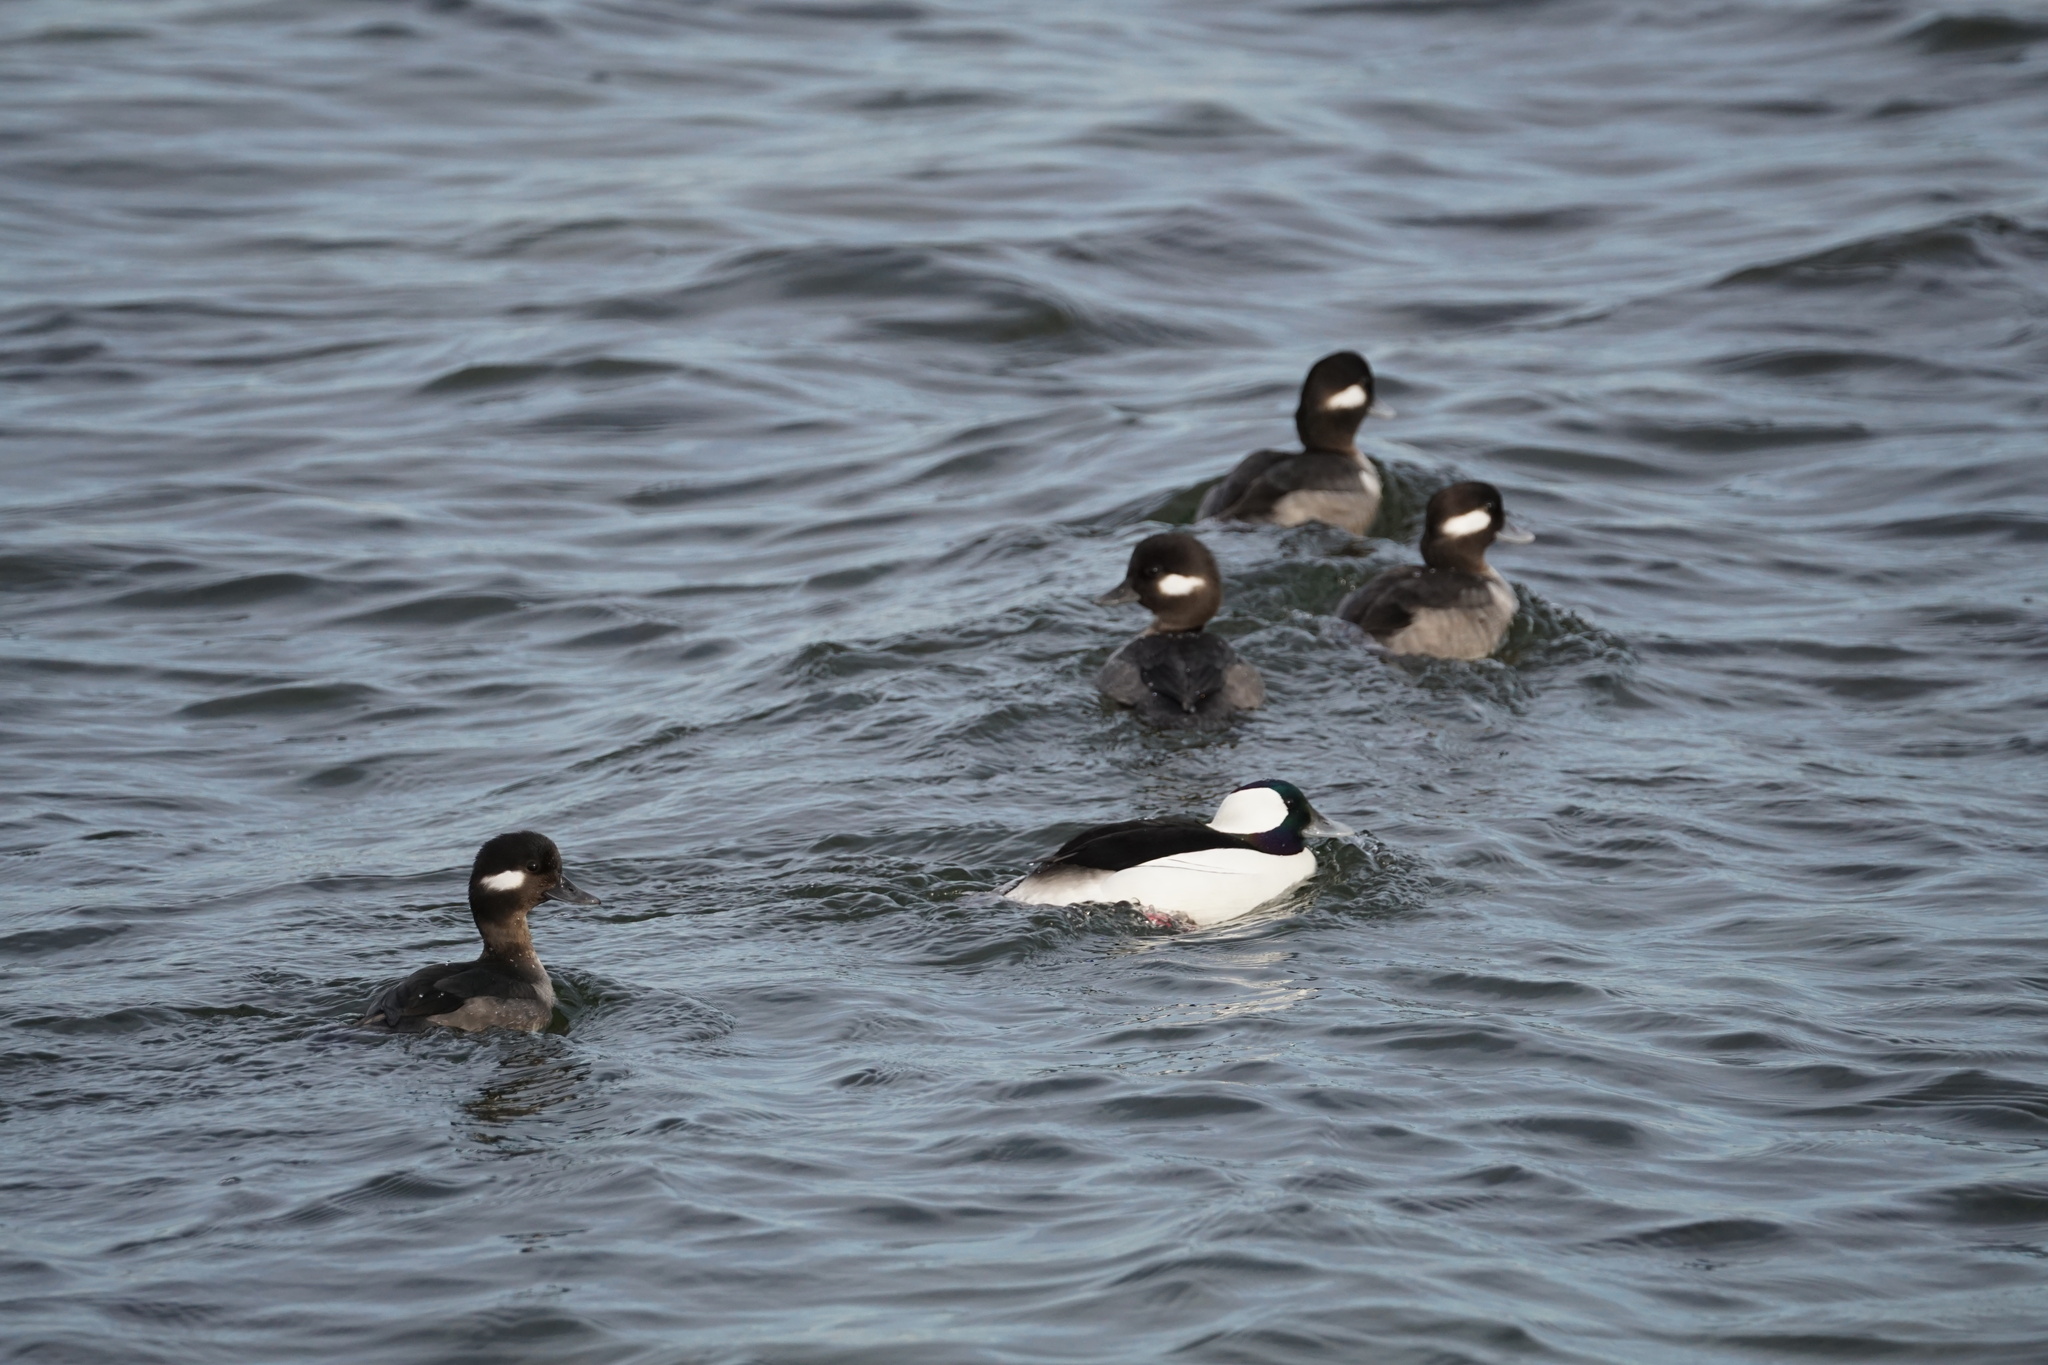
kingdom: Animalia
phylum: Chordata
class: Aves
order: Anseriformes
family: Anatidae
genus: Bucephala
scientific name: Bucephala albeola
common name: Bufflehead
